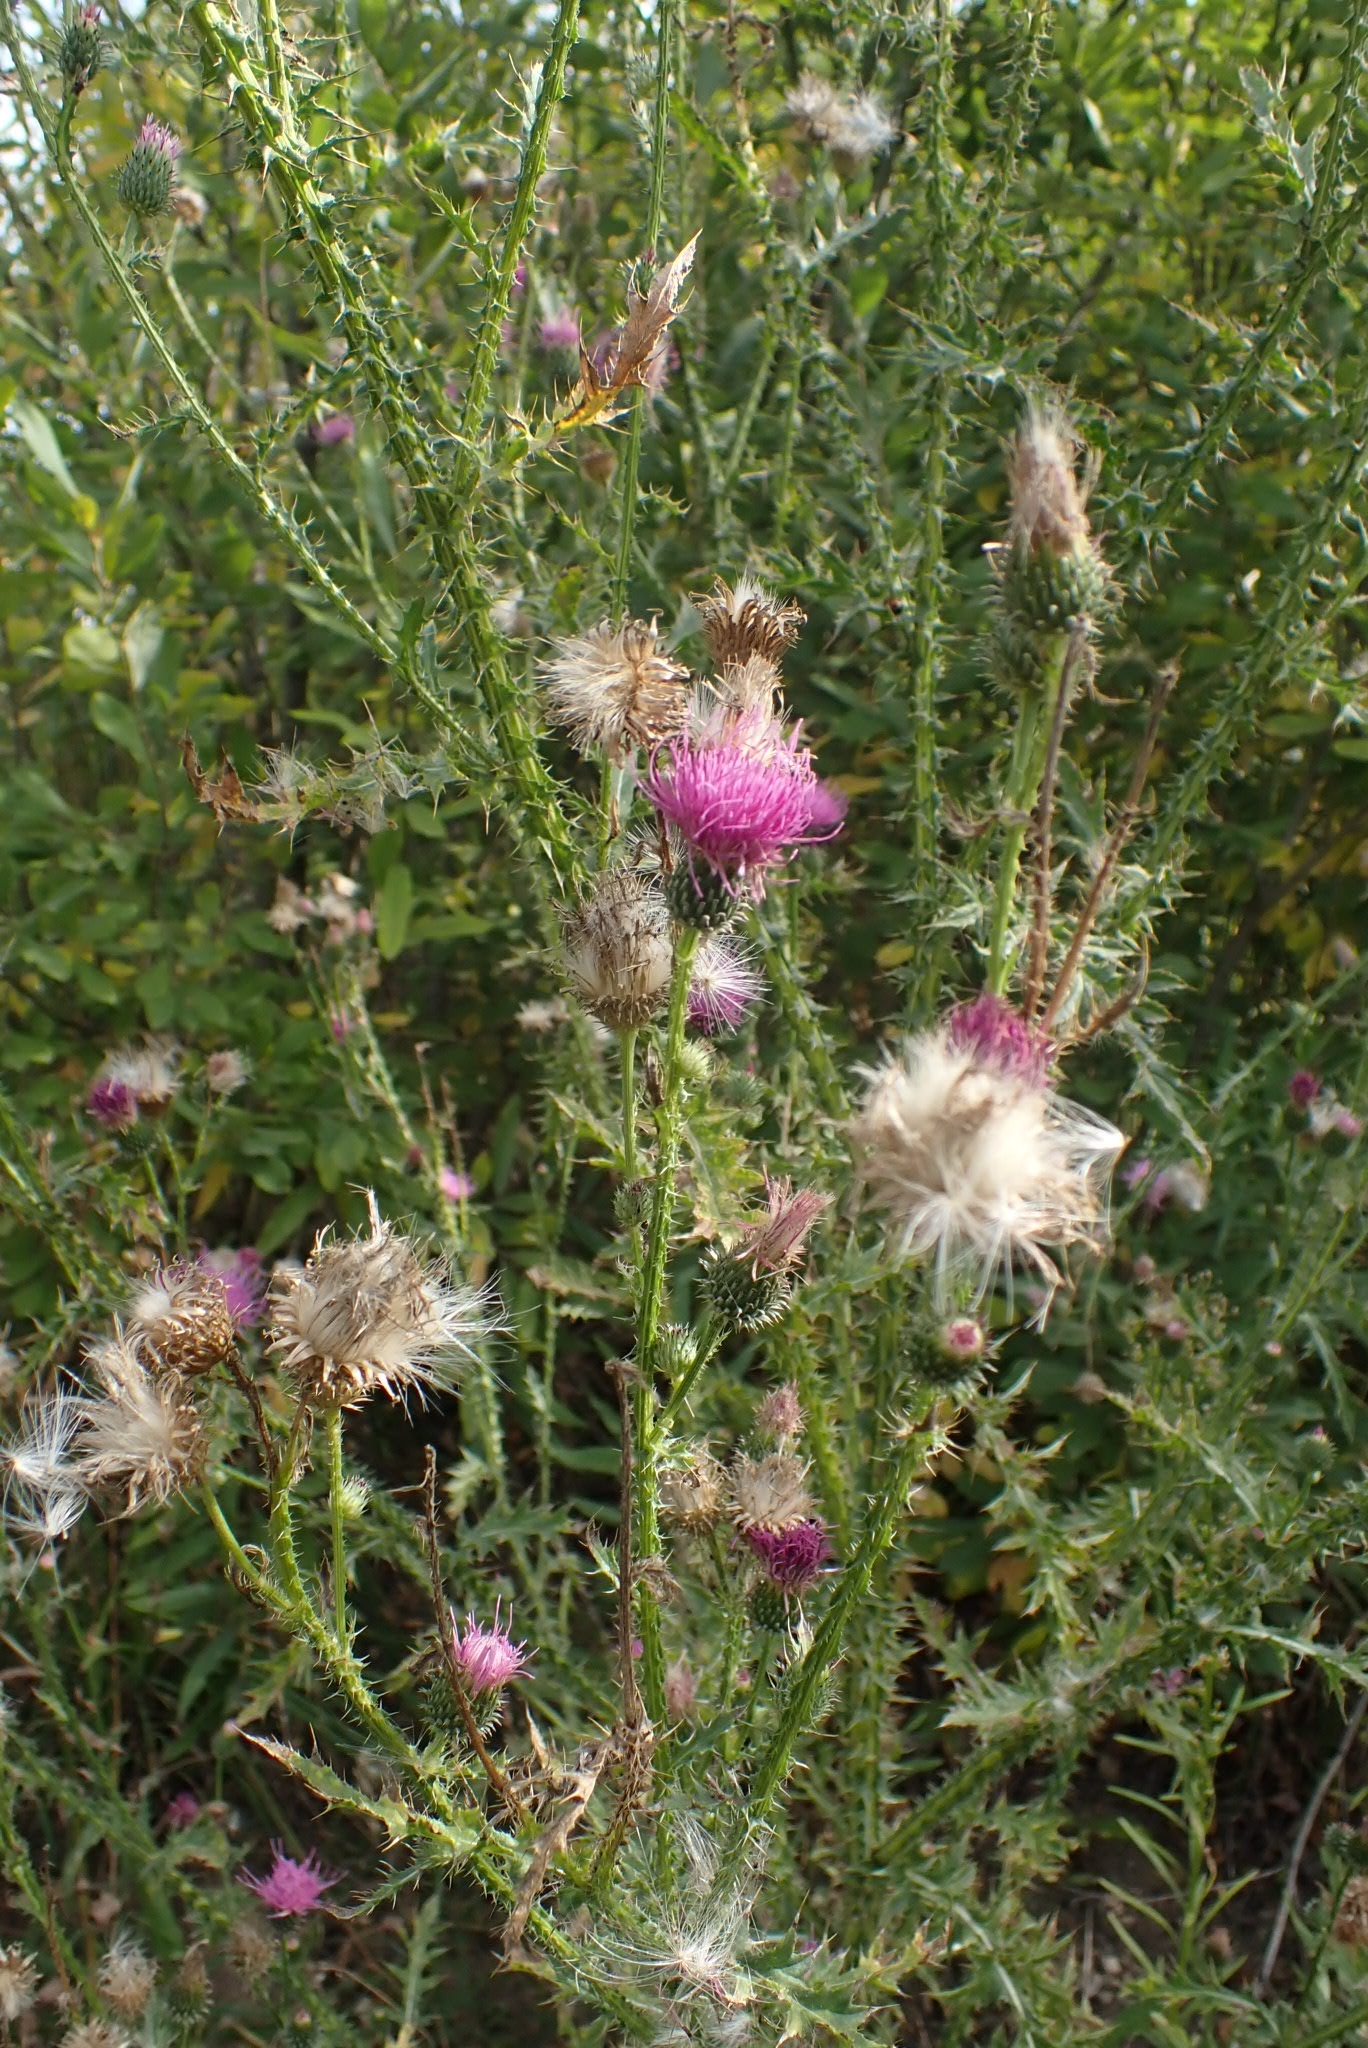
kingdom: Plantae
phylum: Tracheophyta
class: Magnoliopsida
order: Asterales
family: Asteraceae
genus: Carduus
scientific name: Carduus acanthoides
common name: Plumeless thistle
